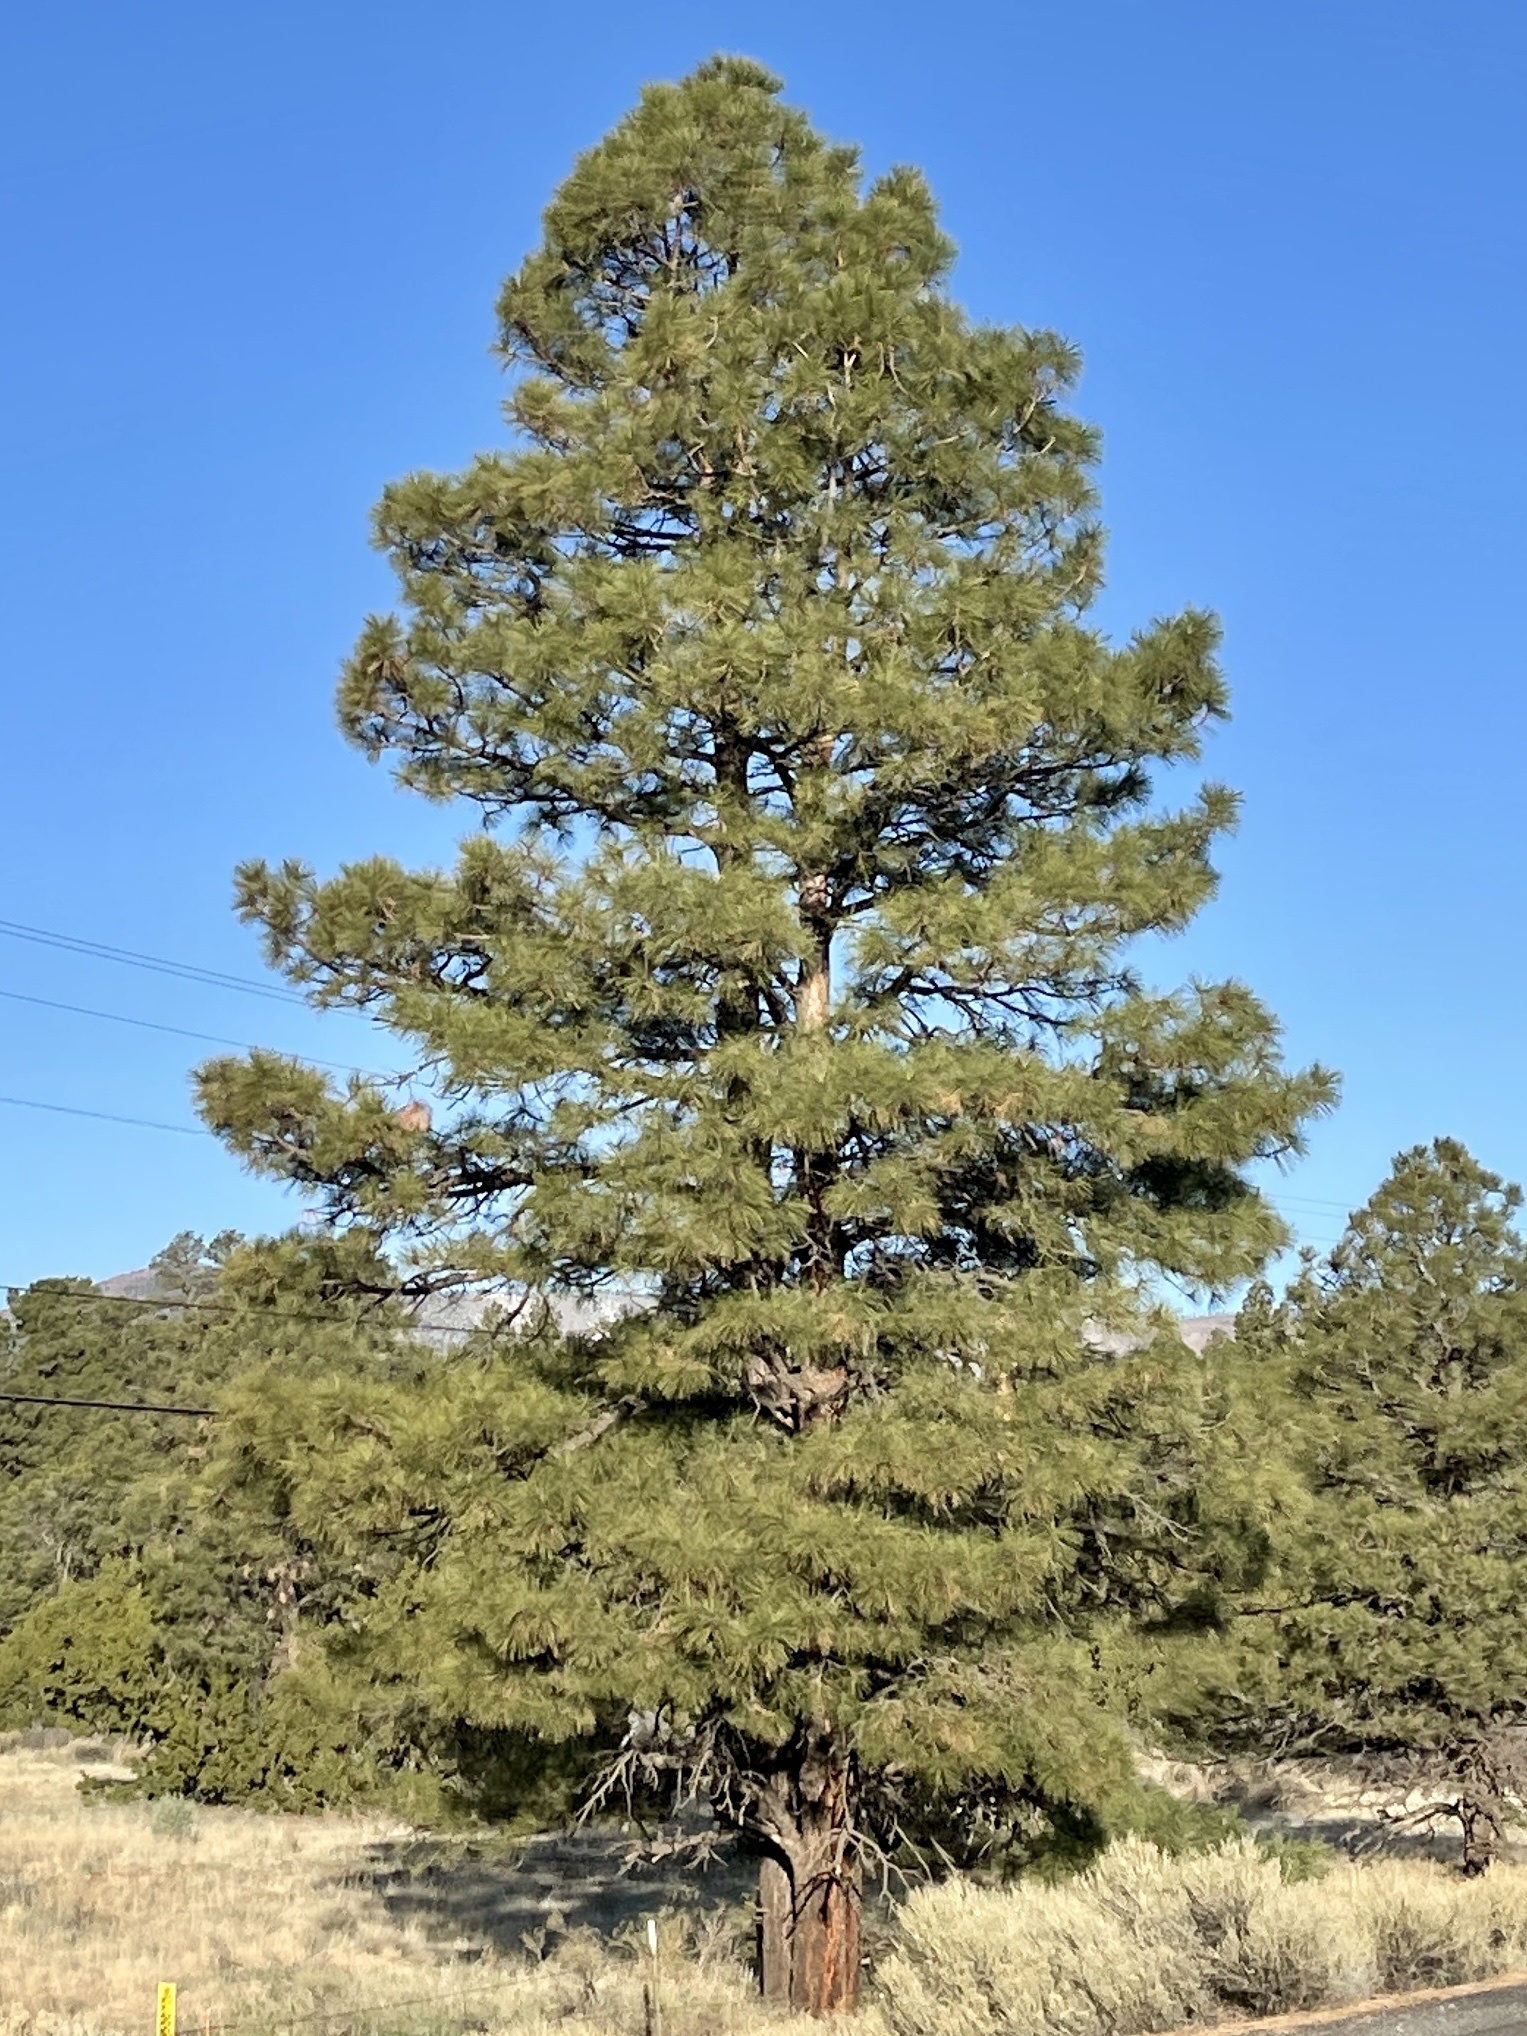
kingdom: Plantae
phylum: Tracheophyta
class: Pinopsida
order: Pinales
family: Pinaceae
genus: Pinus
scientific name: Pinus ponderosa
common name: Western yellow-pine
